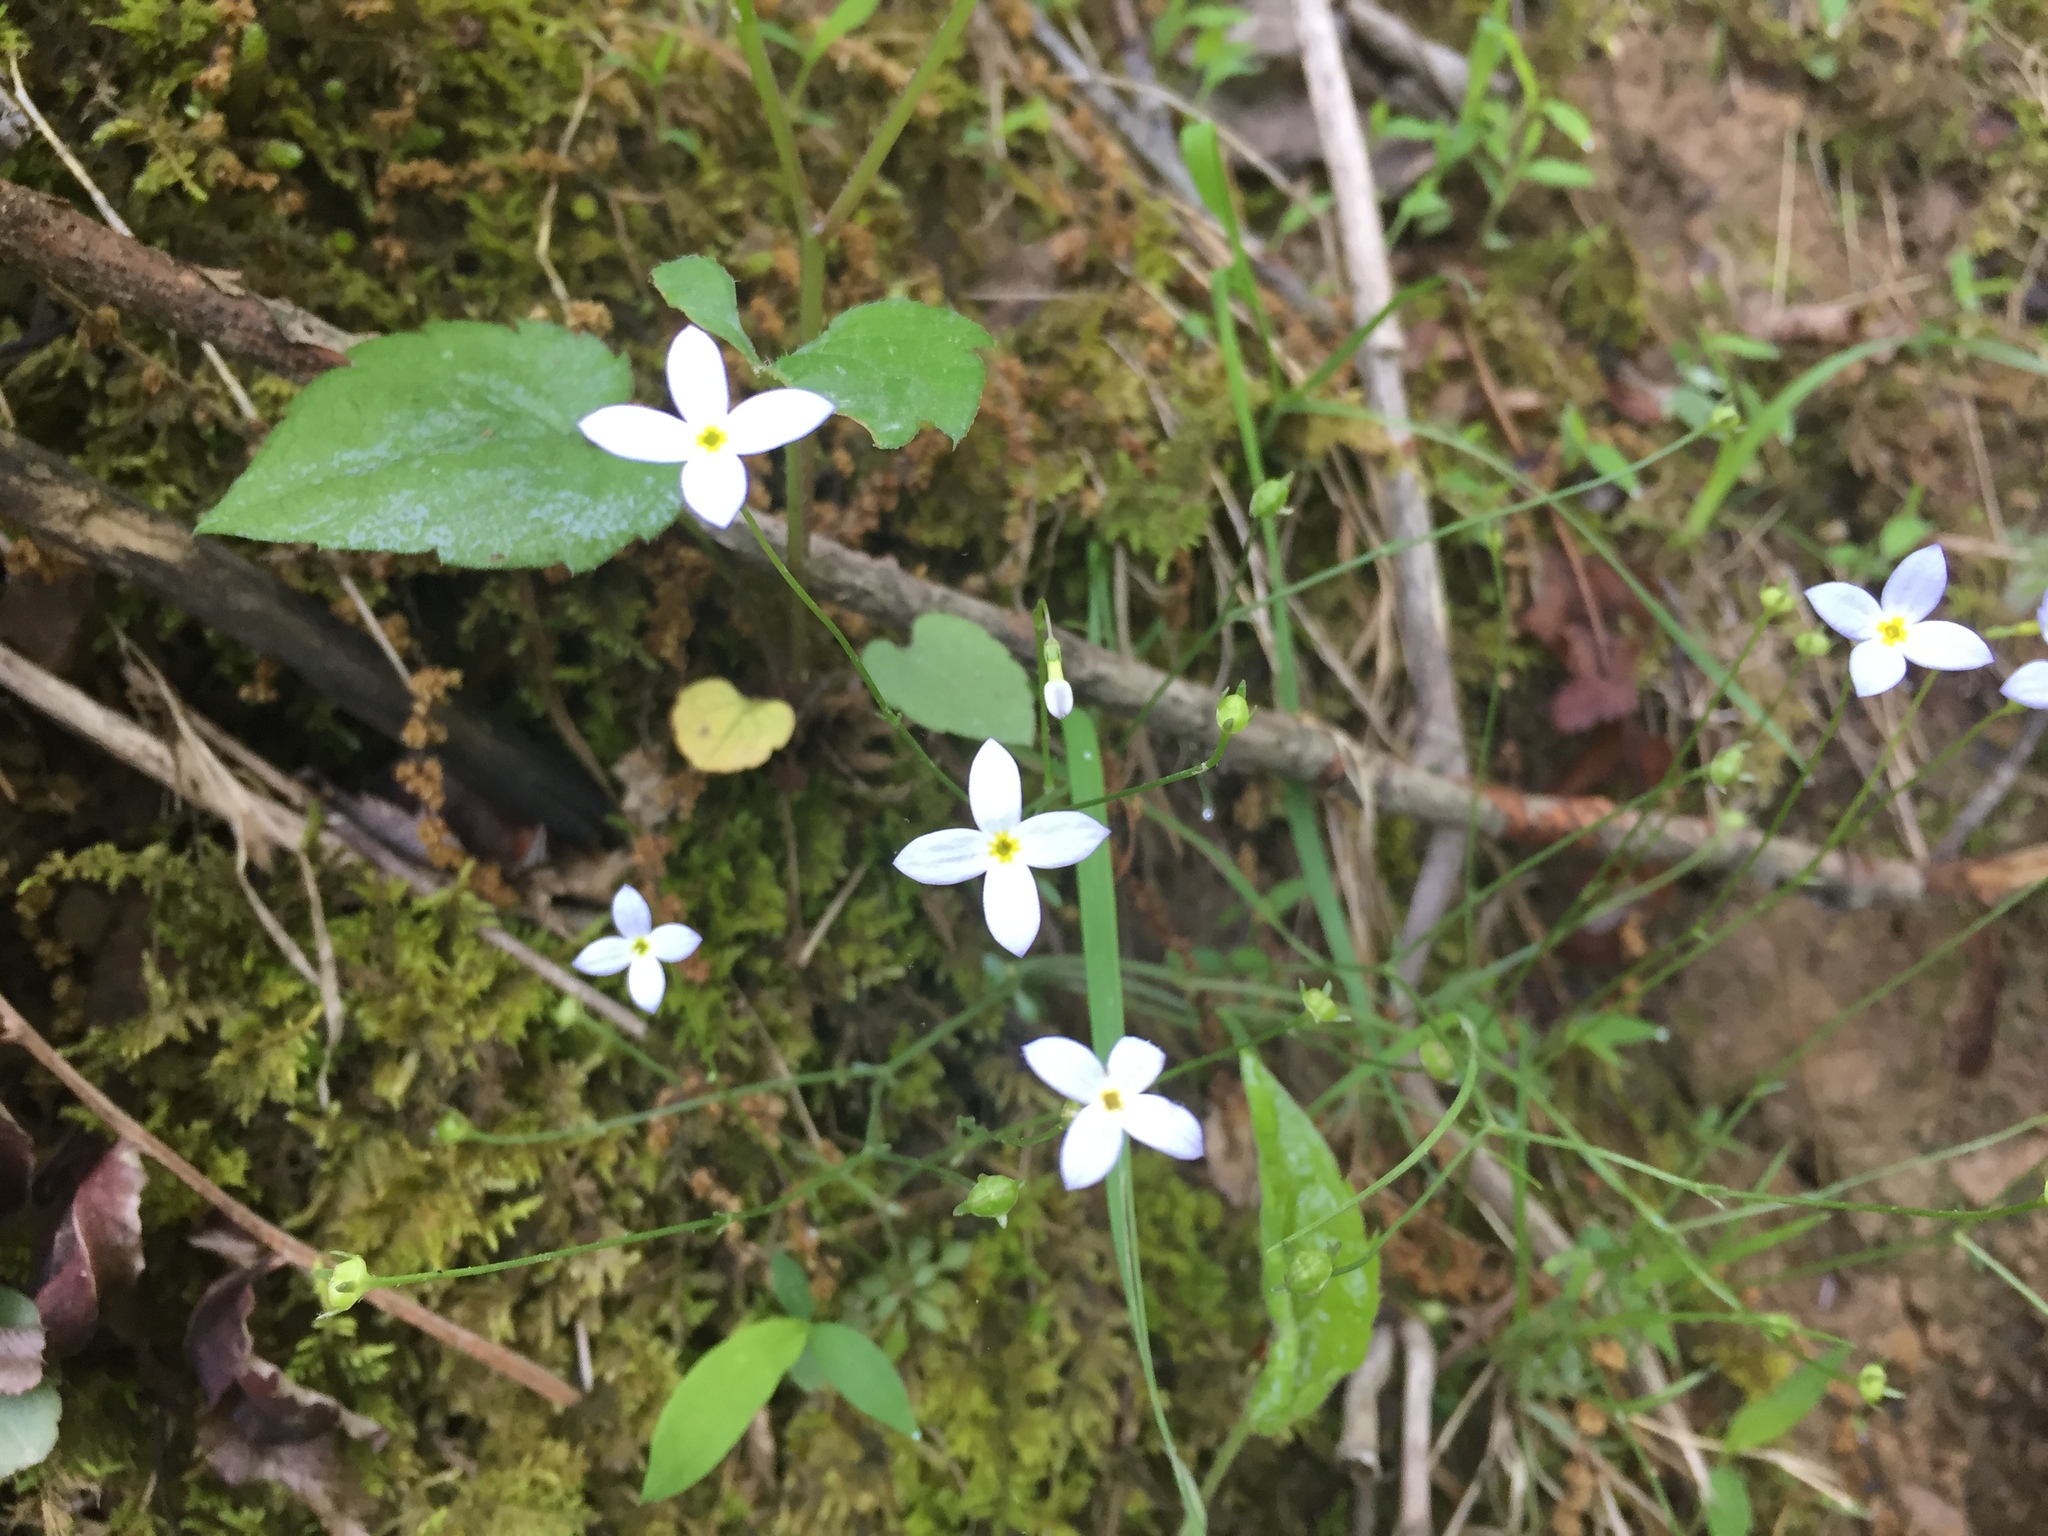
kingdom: Plantae
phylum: Tracheophyta
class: Magnoliopsida
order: Gentianales
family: Rubiaceae
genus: Houstonia
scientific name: Houstonia caerulea
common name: Bluets
